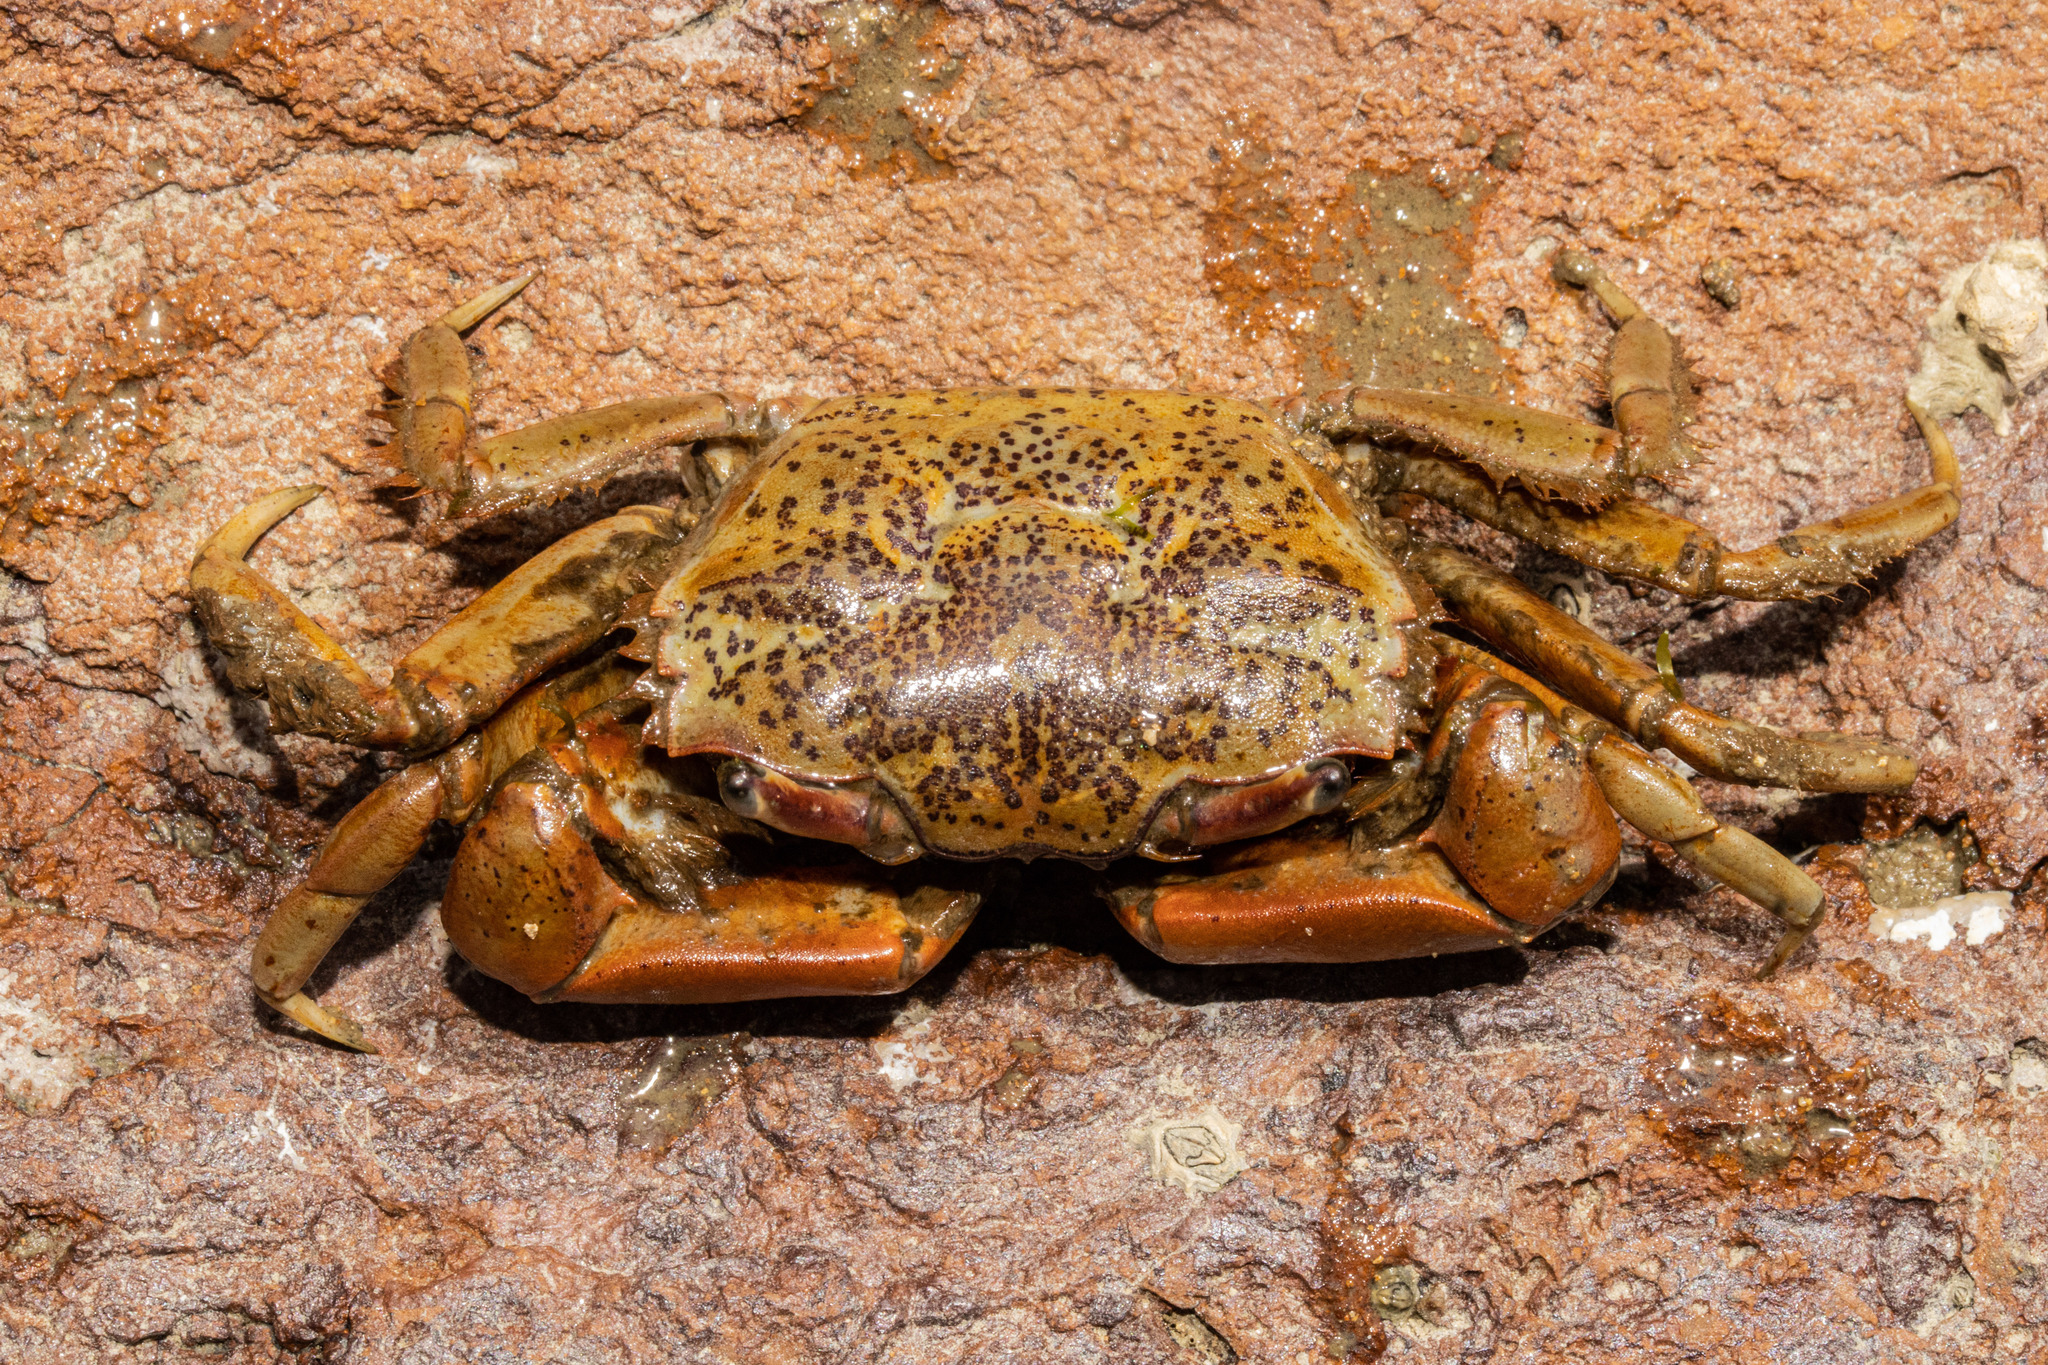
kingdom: Animalia
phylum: Arthropoda
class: Malacostraca
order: Decapoda
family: Macrophthalmidae
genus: Hemiplax
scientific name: Hemiplax hirtipes
